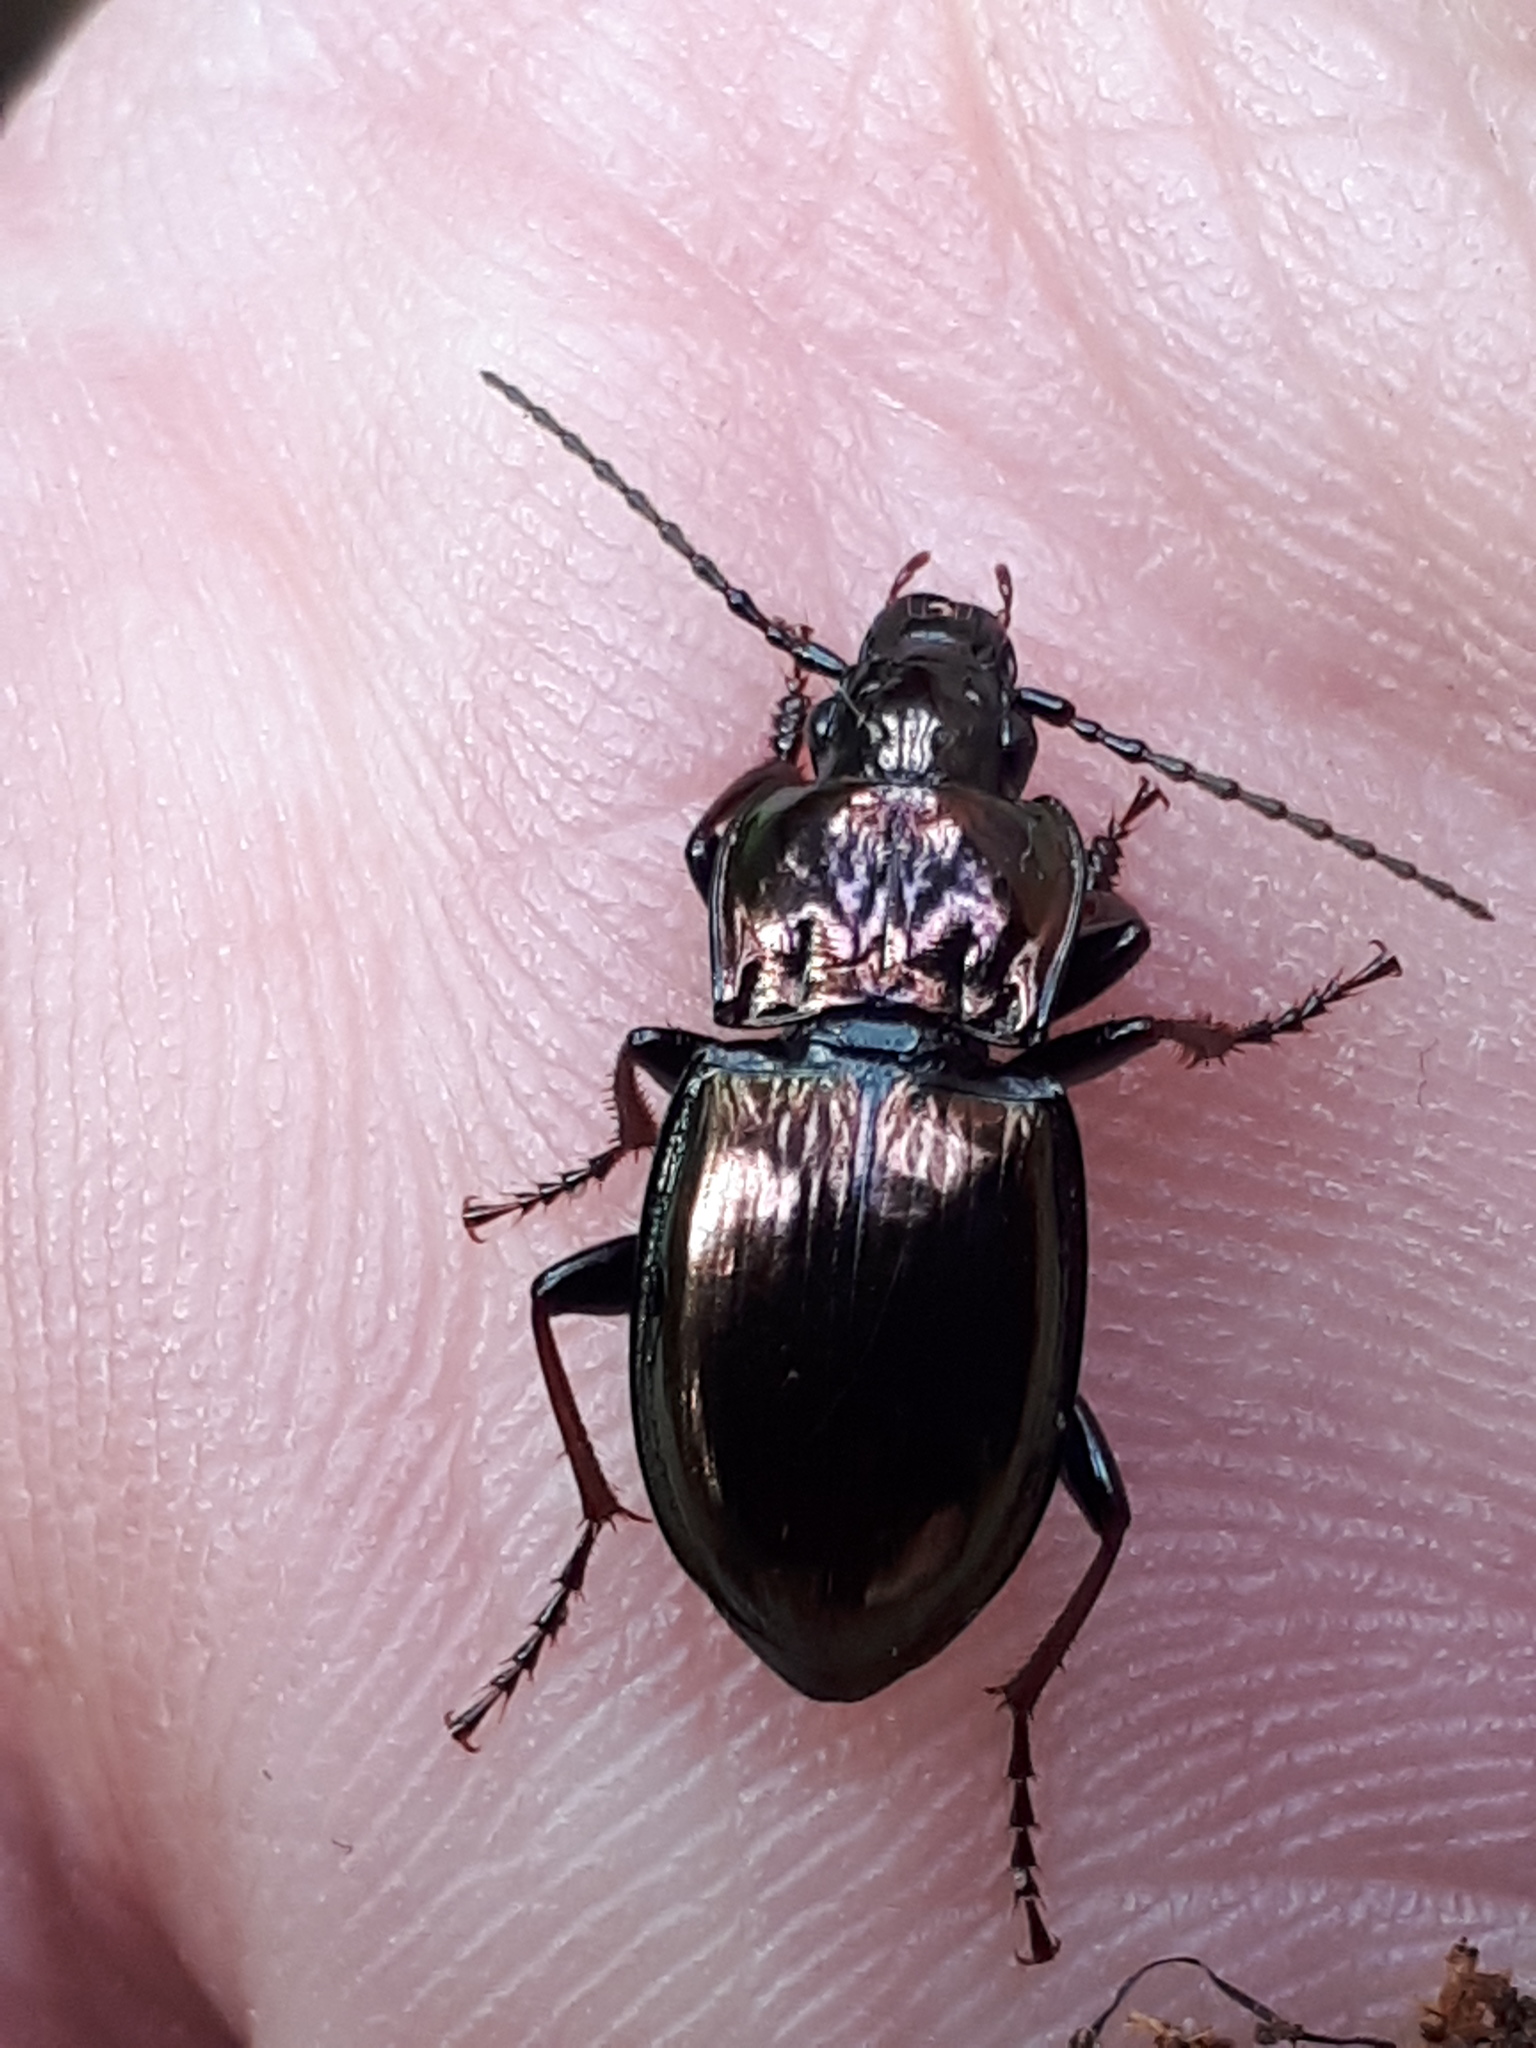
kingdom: Animalia
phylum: Arthropoda
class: Insecta
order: Coleoptera
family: Carabidae
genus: Pterostichus
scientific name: Pterostichus burmeisteri
